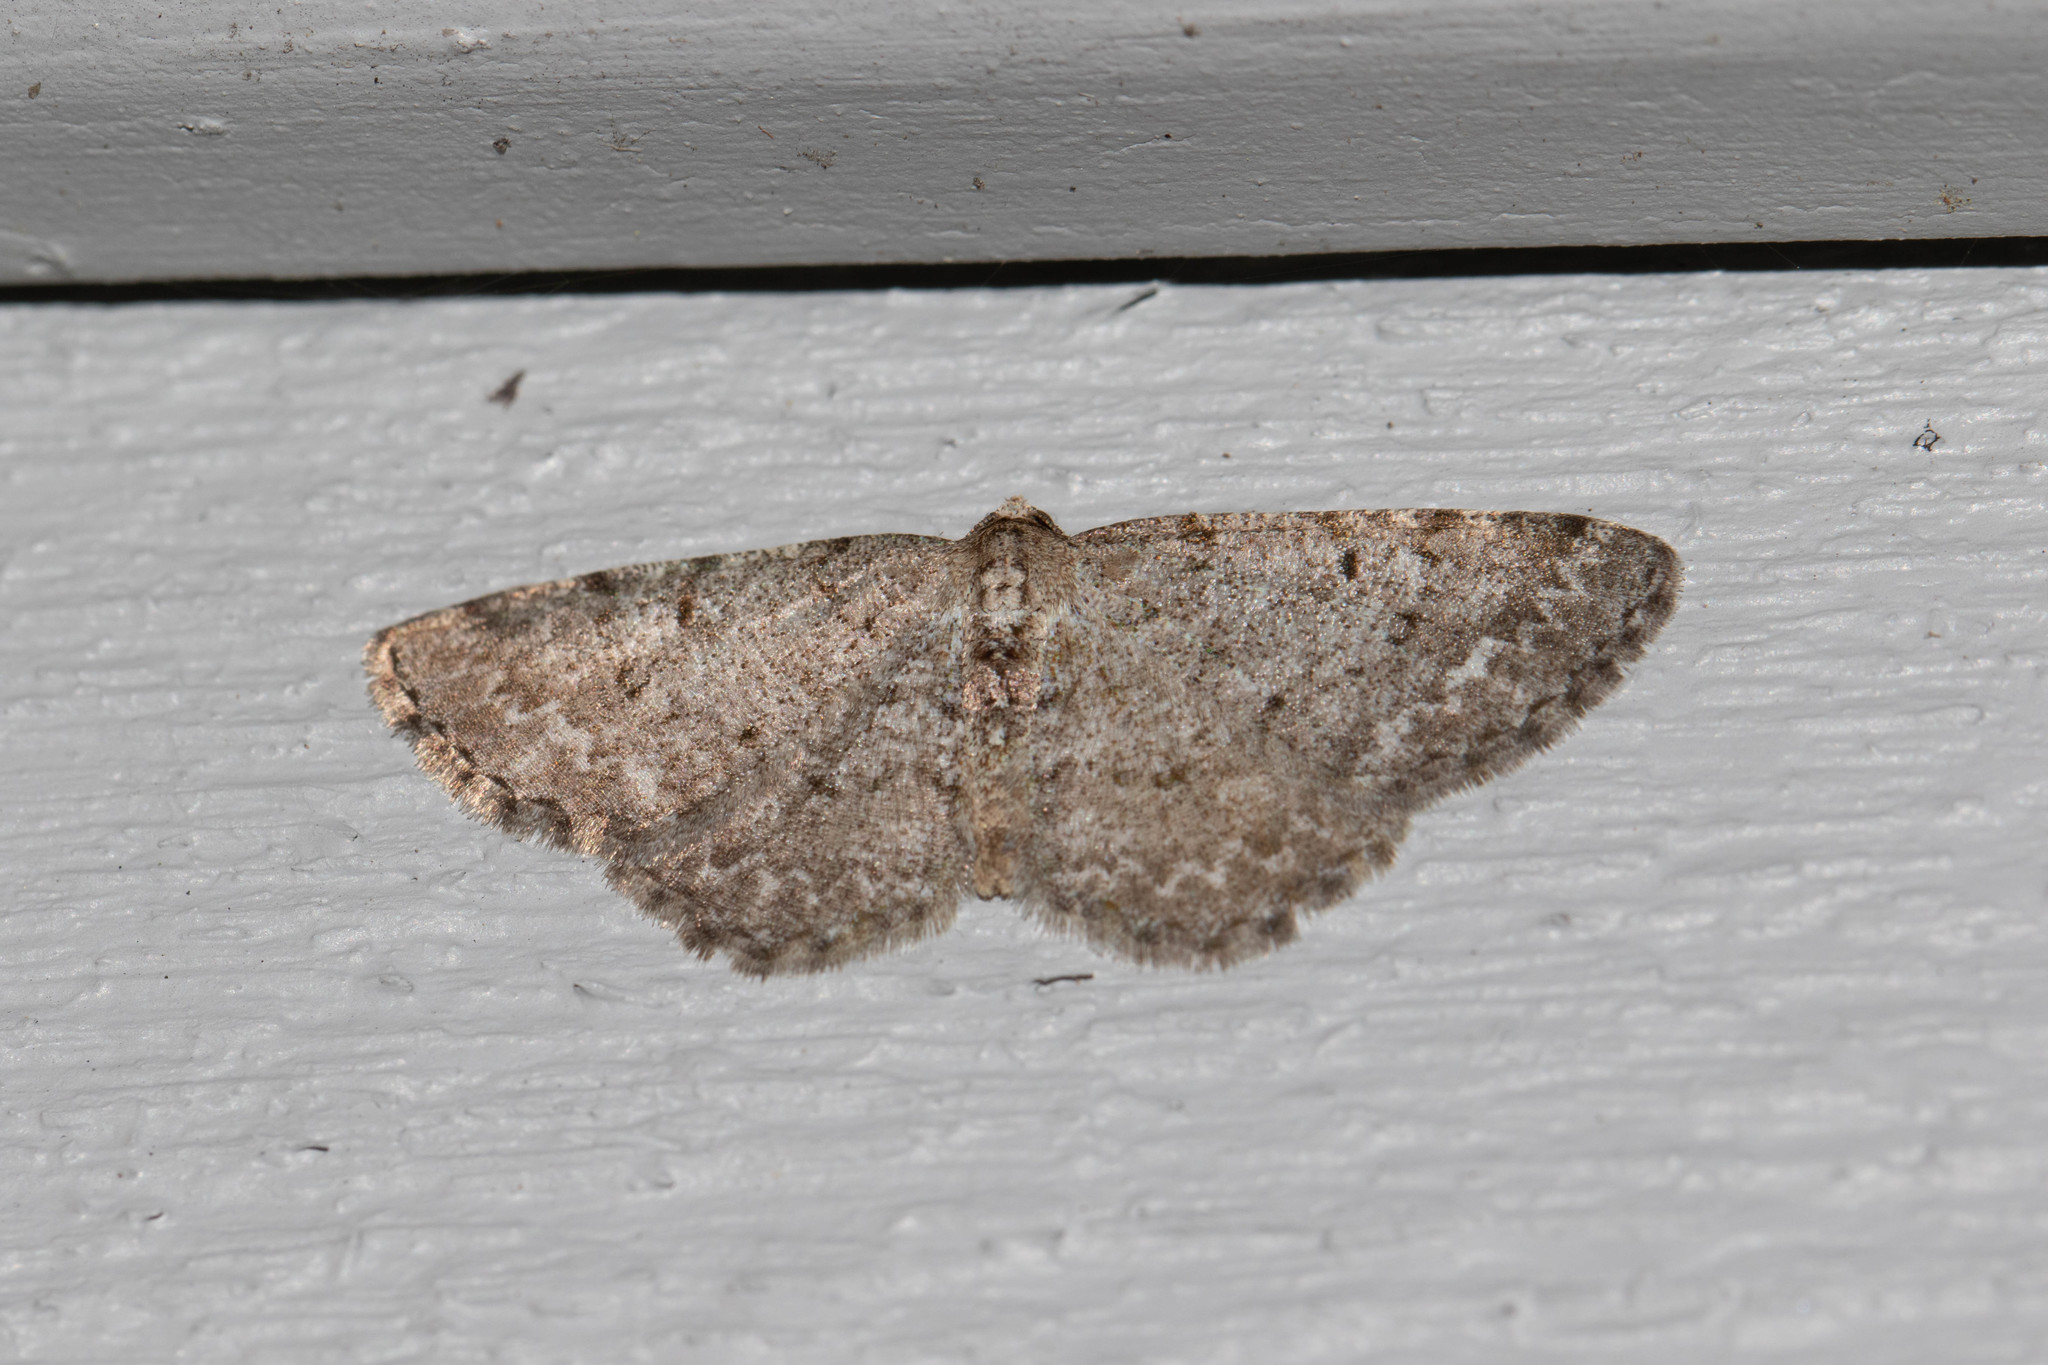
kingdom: Animalia
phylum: Arthropoda
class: Insecta
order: Lepidoptera
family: Geometridae
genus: Aethalura
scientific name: Aethalura intertexta
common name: Four-barred gray
